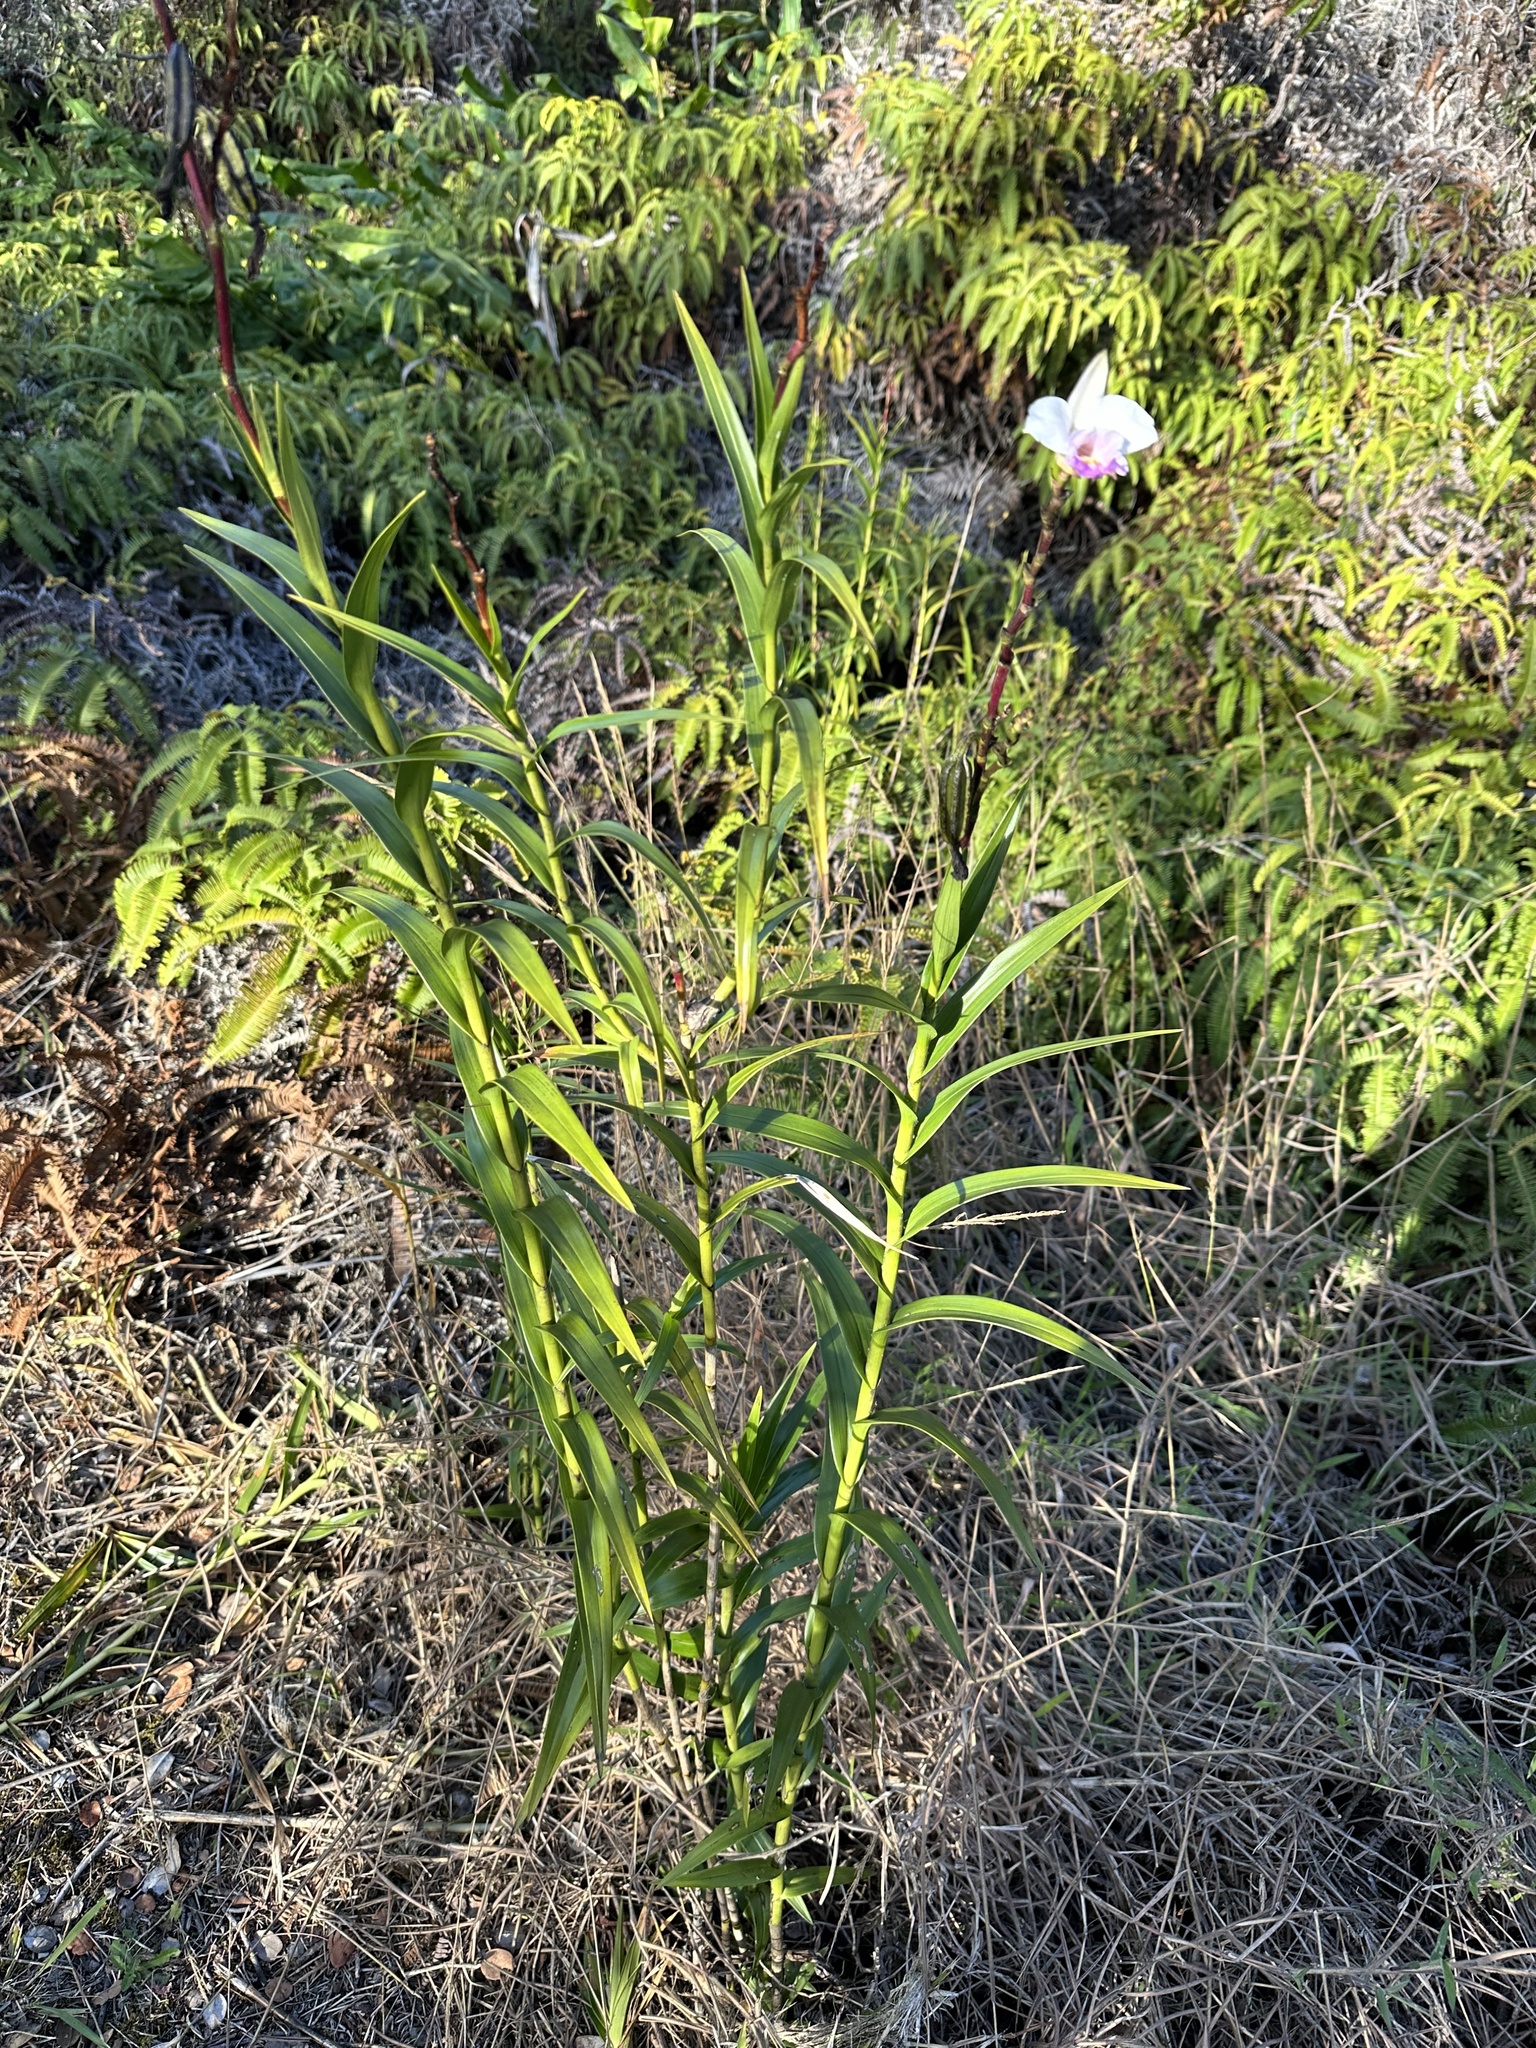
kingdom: Plantae
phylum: Tracheophyta
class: Liliopsida
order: Asparagales
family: Orchidaceae
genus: Arundina
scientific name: Arundina graminifolia
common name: Bamboo orchid
